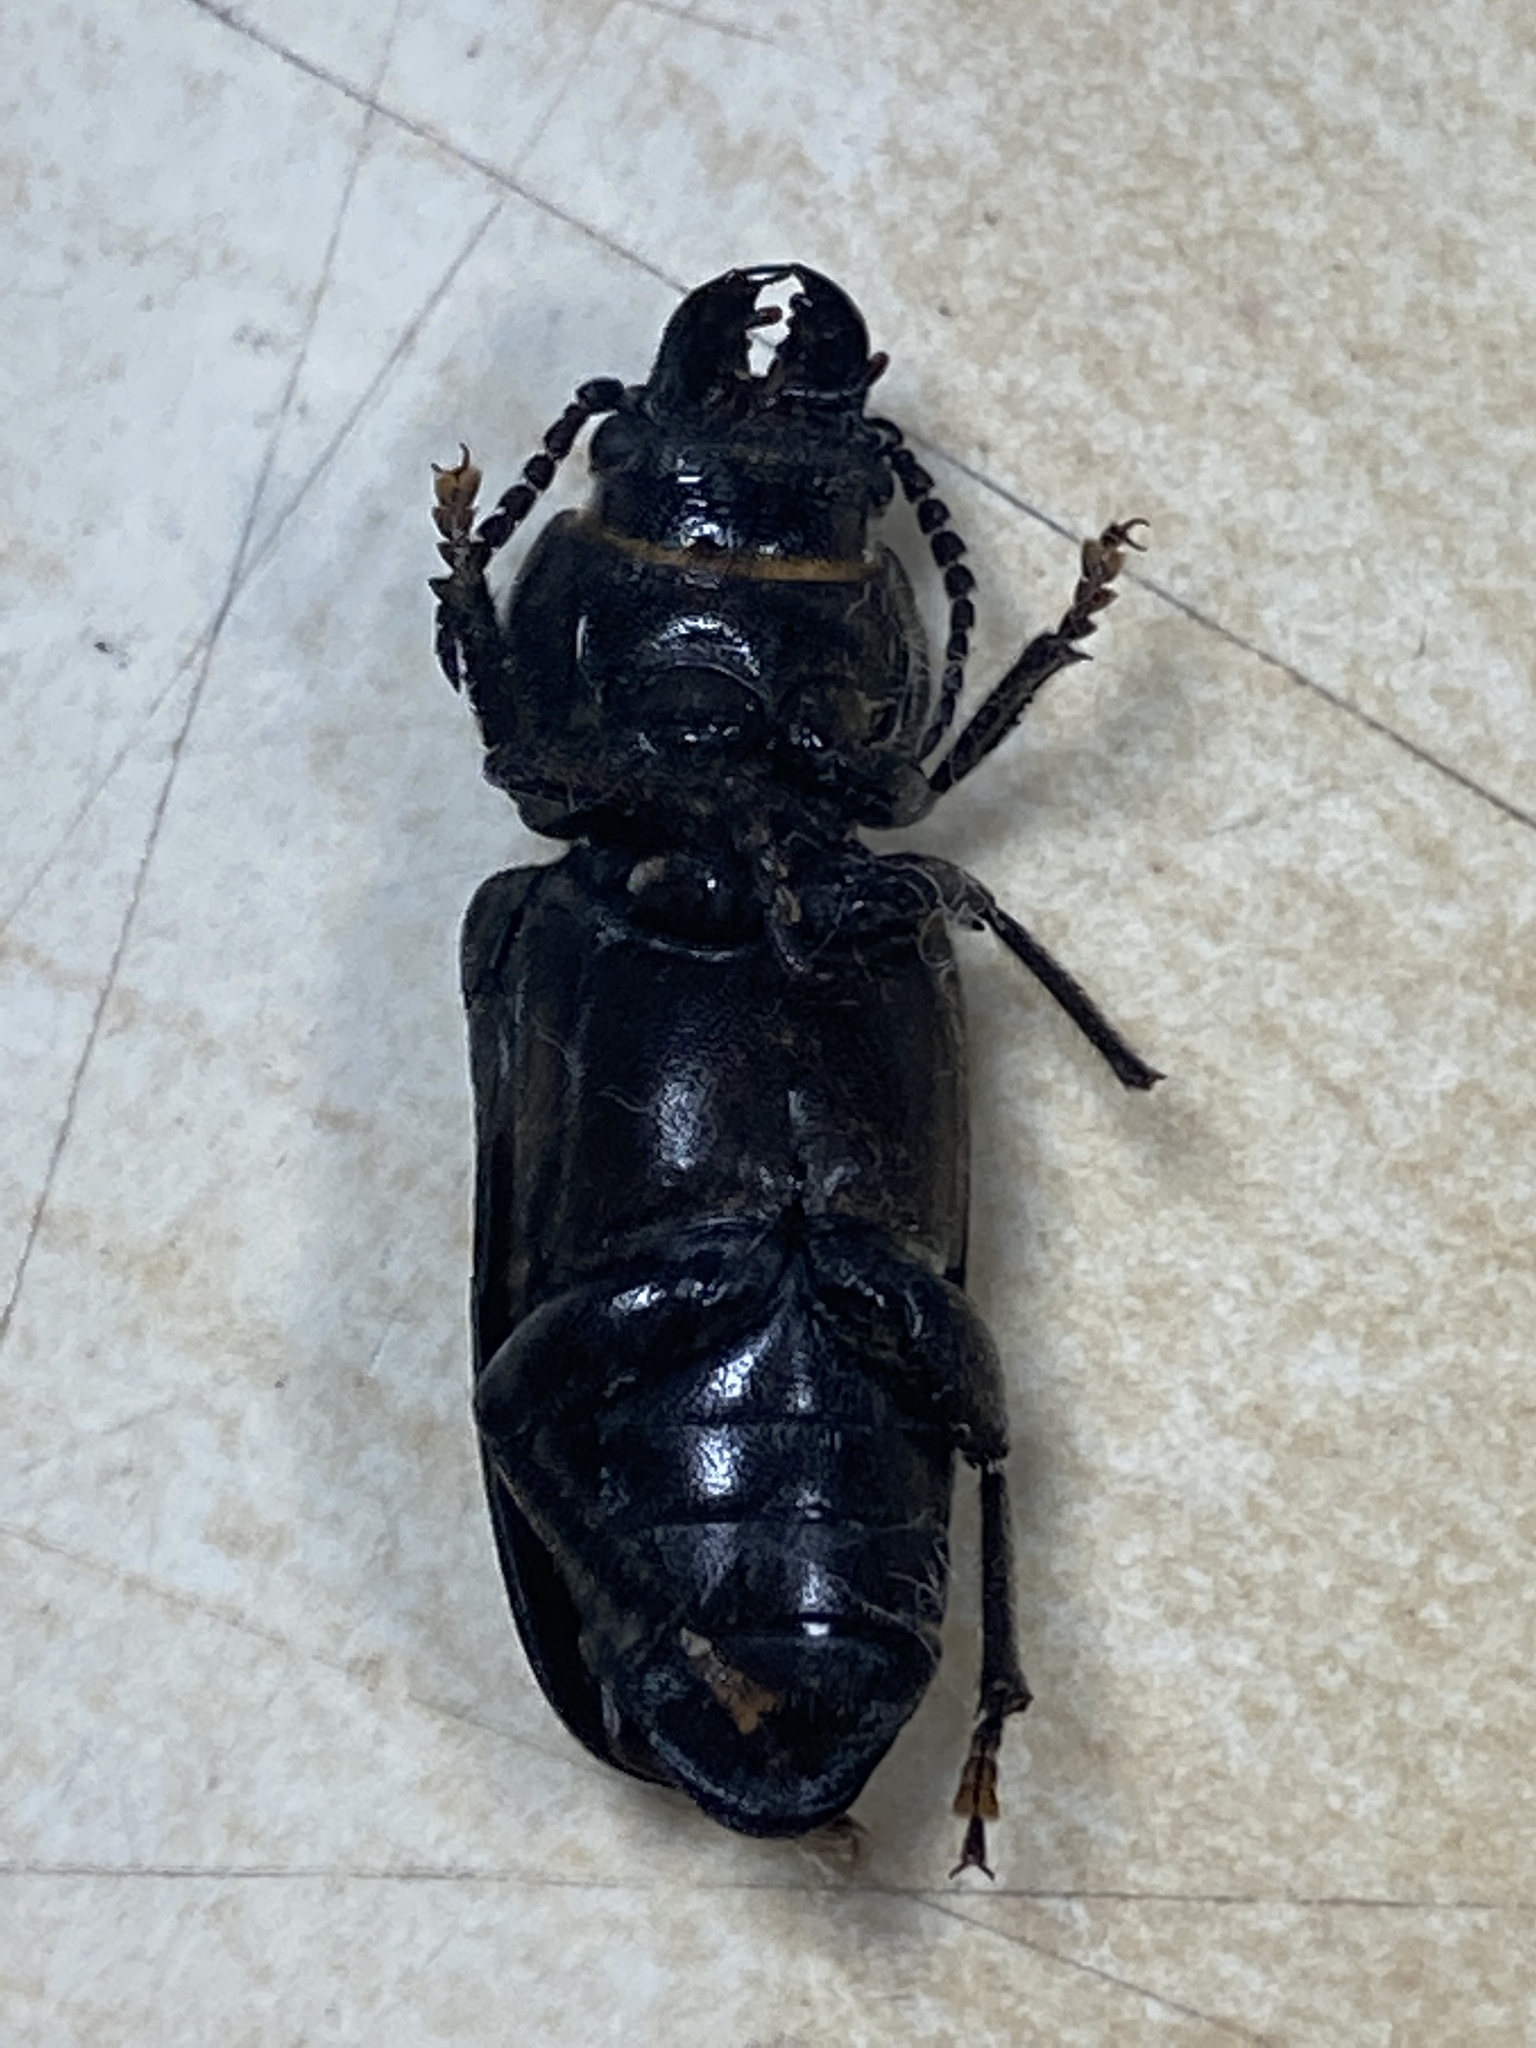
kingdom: Animalia
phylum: Arthropoda
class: Insecta
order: Coleoptera
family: Cerambycidae
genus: Spondylis
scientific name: Spondylis buprestoides
